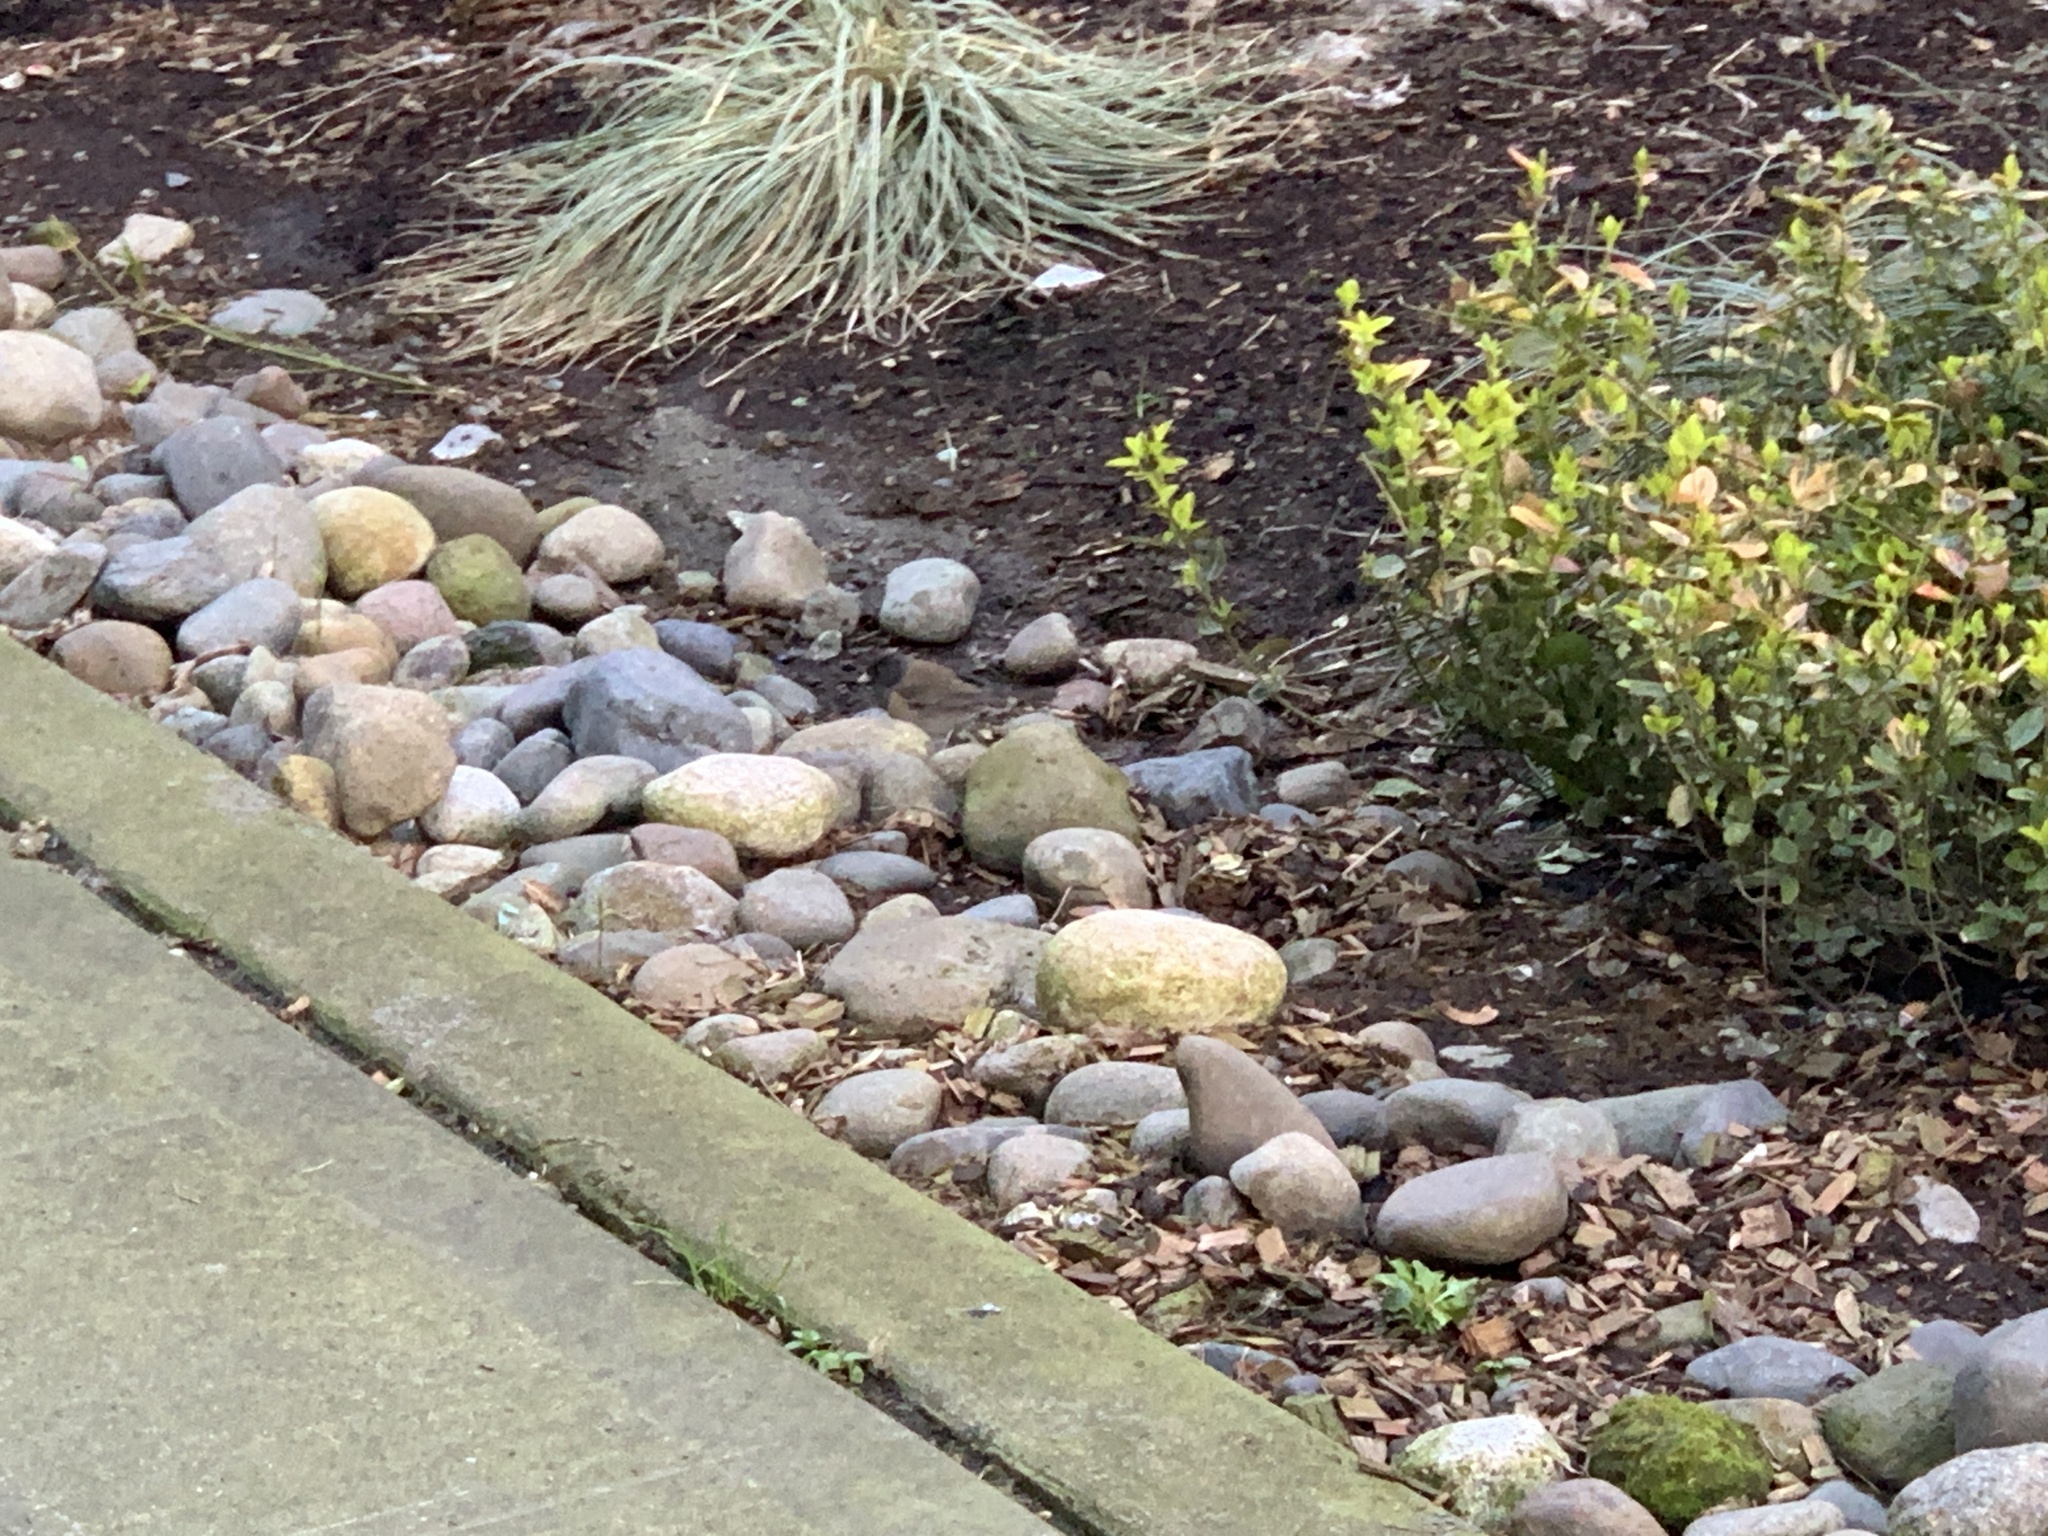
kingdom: Animalia
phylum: Chordata
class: Aves
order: Passeriformes
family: Passerellidae
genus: Junco
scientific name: Junco hyemalis
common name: Dark-eyed junco
